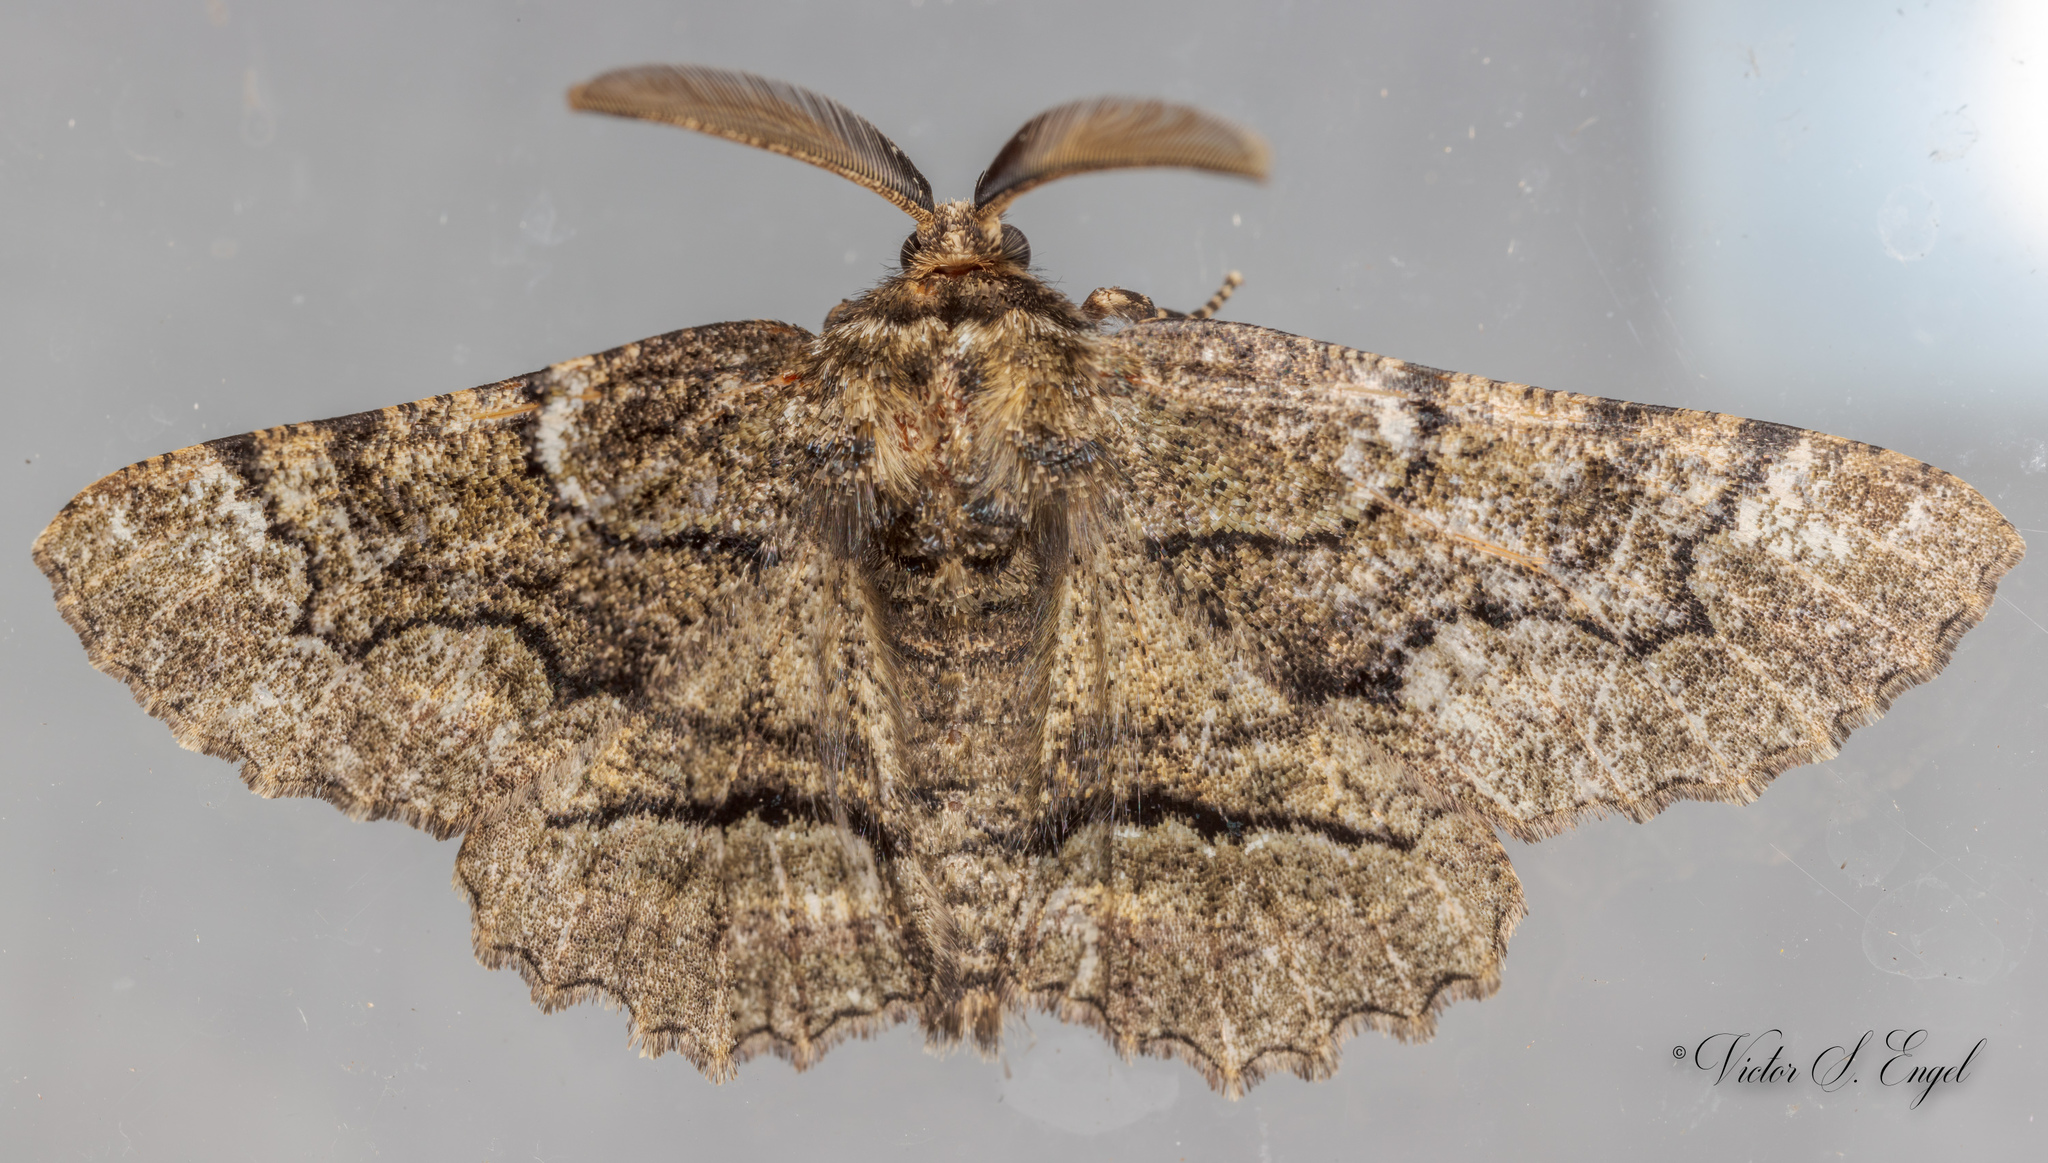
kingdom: Animalia
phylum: Arthropoda
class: Insecta
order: Lepidoptera
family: Geometridae
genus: Phaeoura
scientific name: Phaeoura quernaria
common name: Oak beauty
